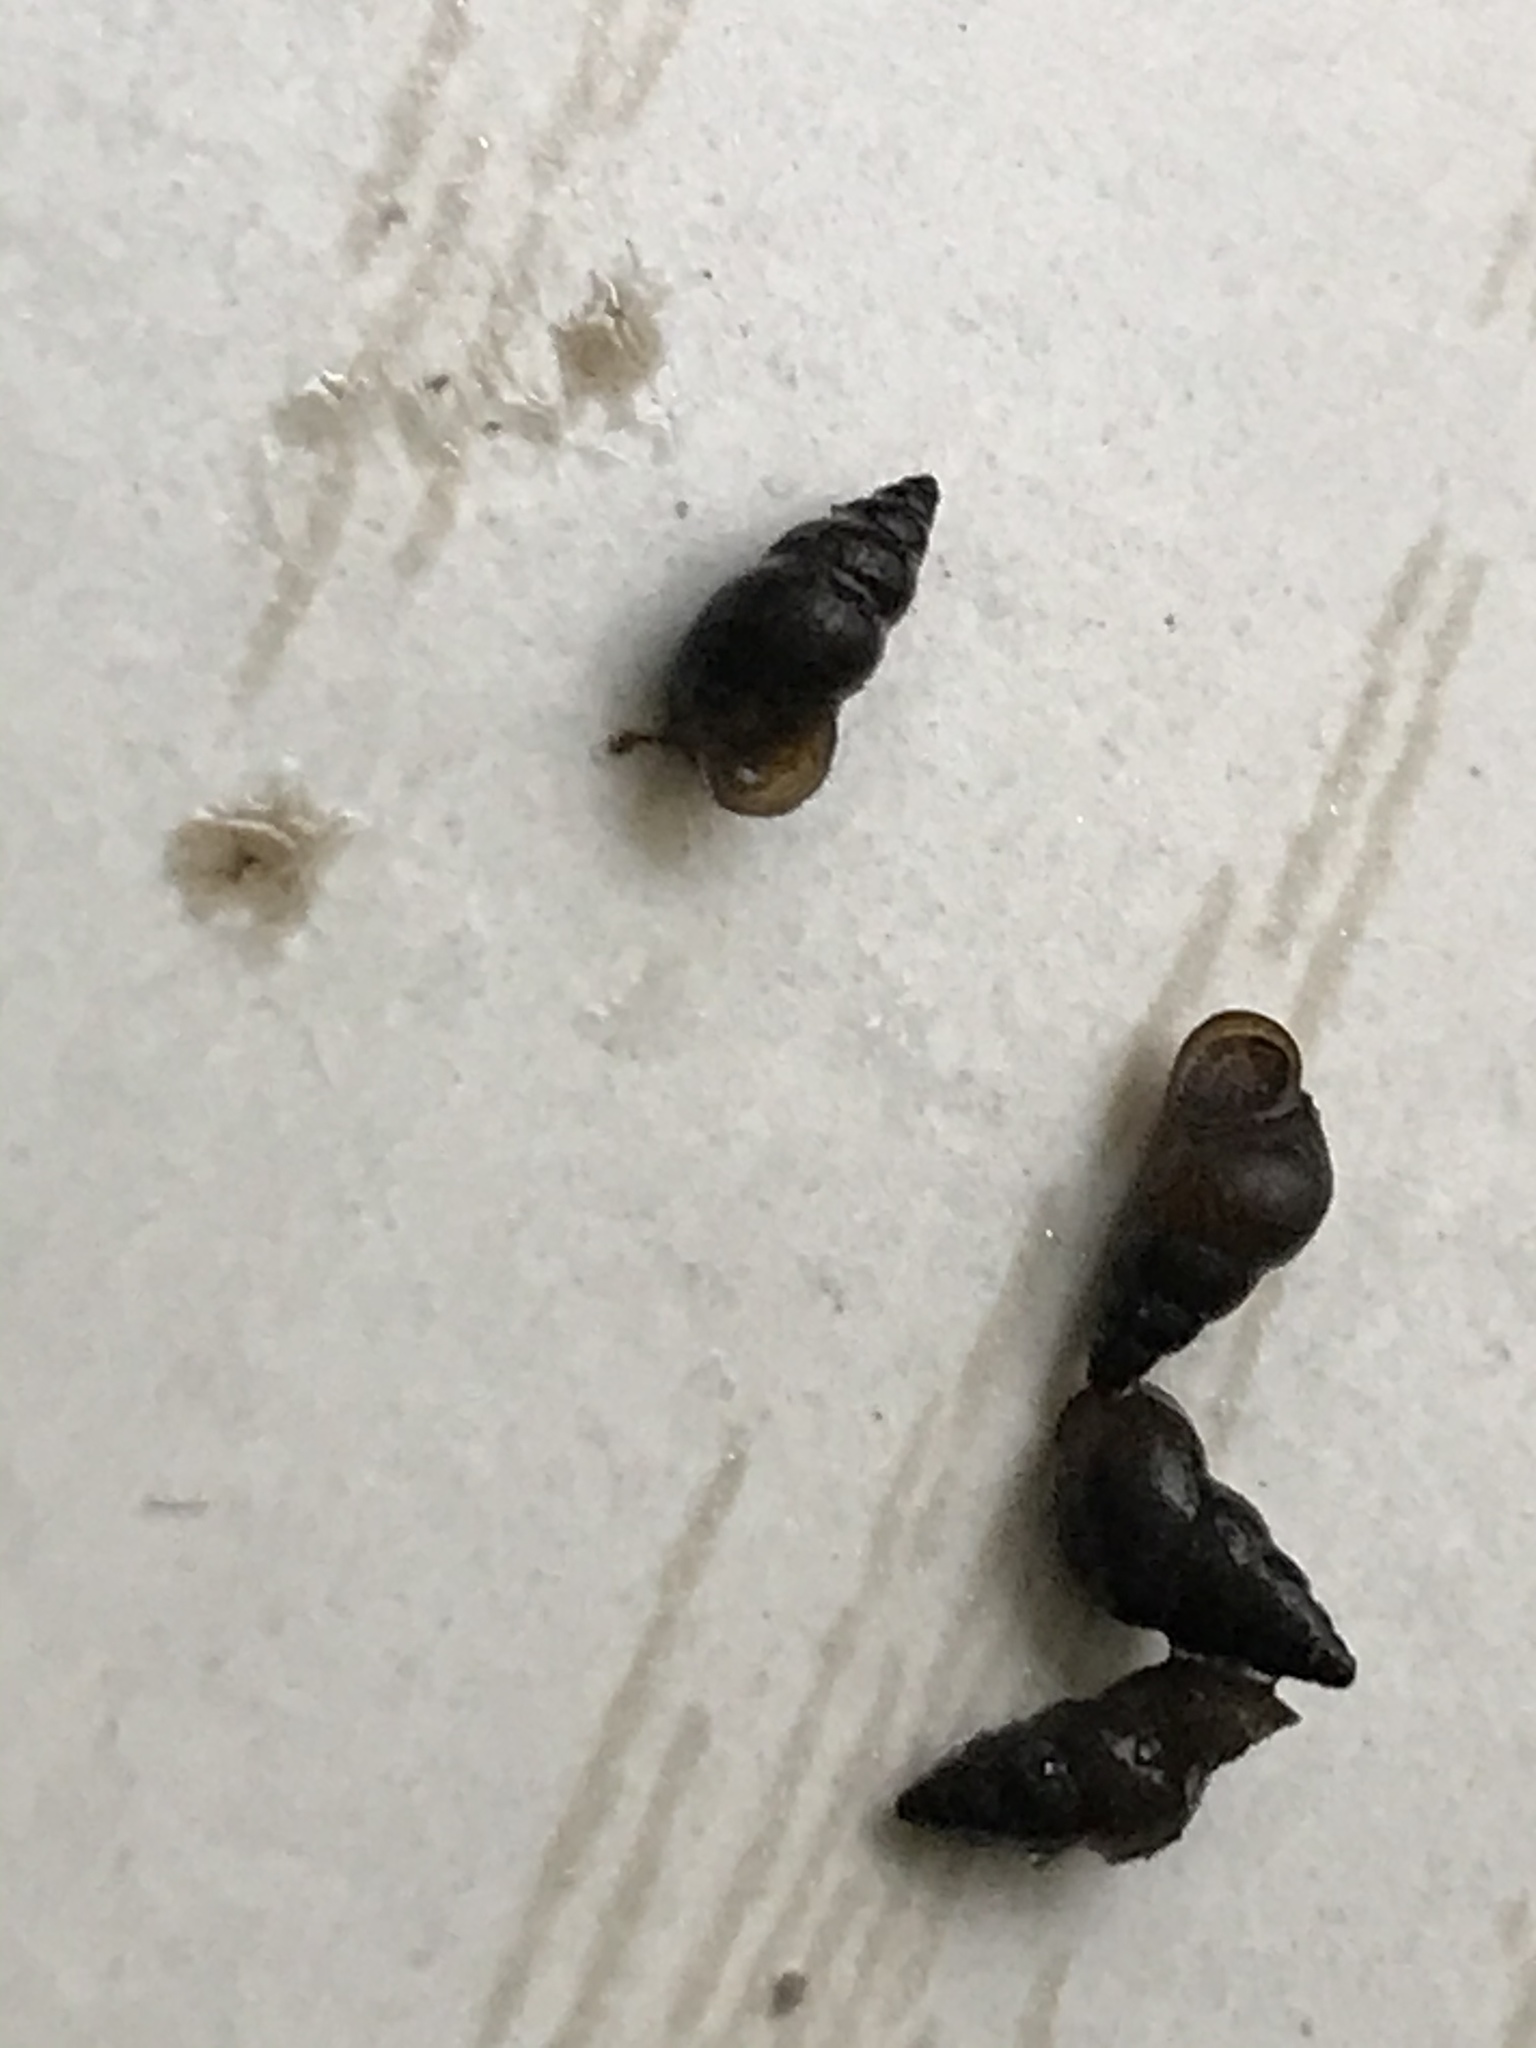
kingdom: Animalia
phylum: Mollusca
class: Gastropoda
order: Littorinimorpha
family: Tateidae
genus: Potamopyrgus
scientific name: Potamopyrgus antipodarum
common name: Jenkins' spire snail
